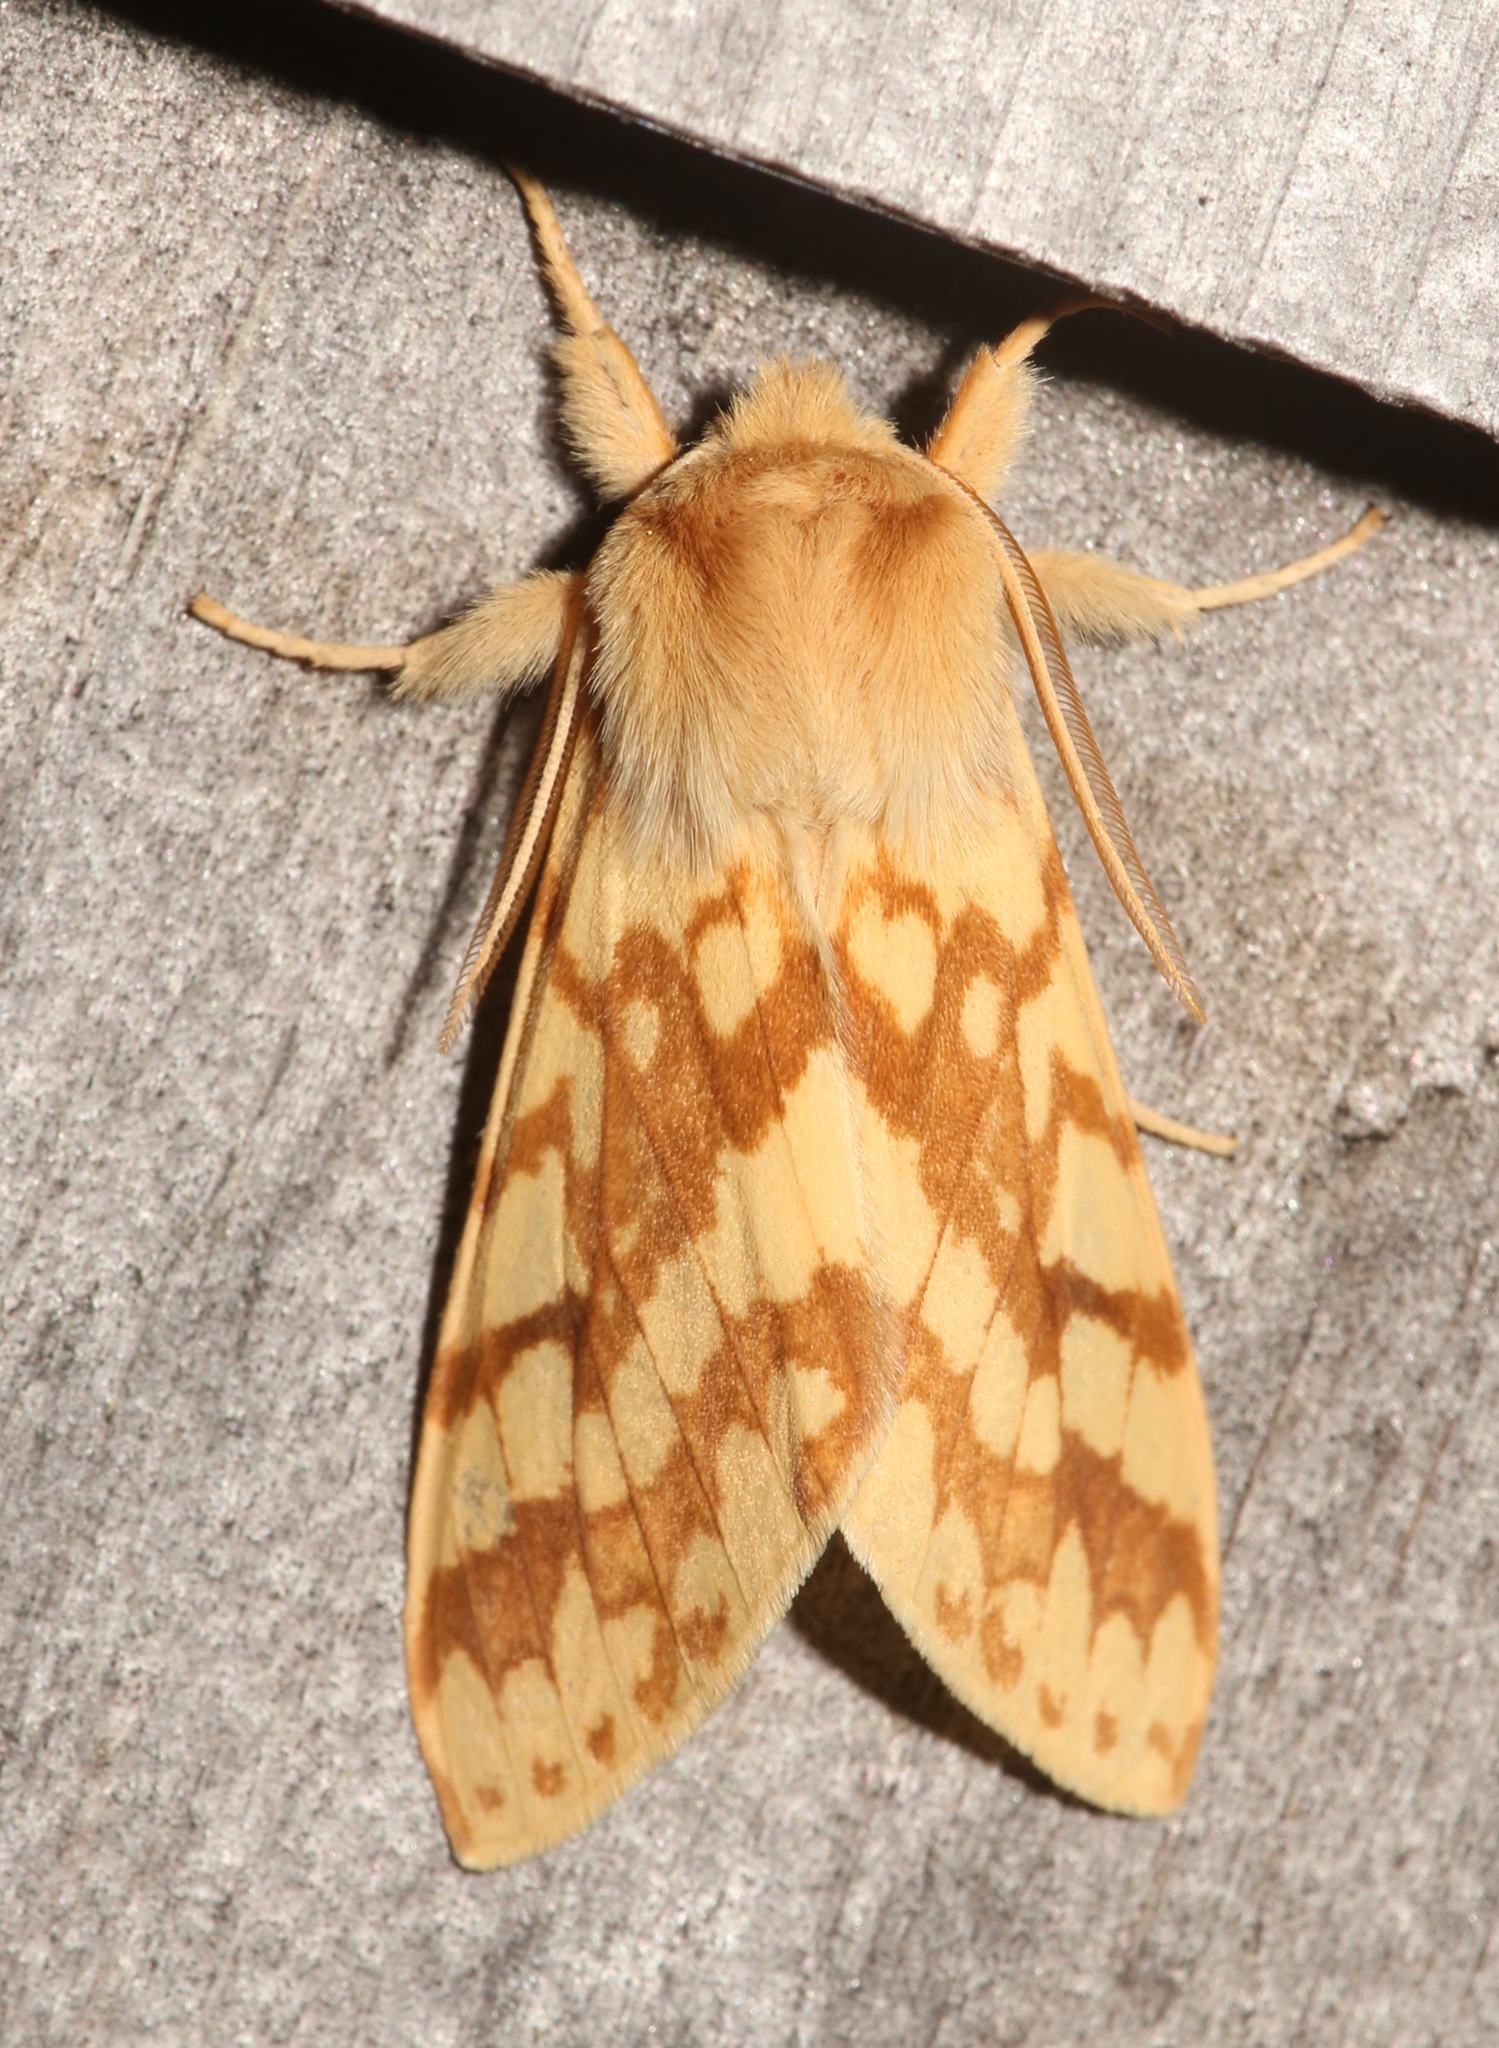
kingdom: Animalia
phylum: Arthropoda
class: Insecta
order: Lepidoptera
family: Erebidae
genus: Lophocampa
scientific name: Lophocampa maculata
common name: Spotted tussock moth
